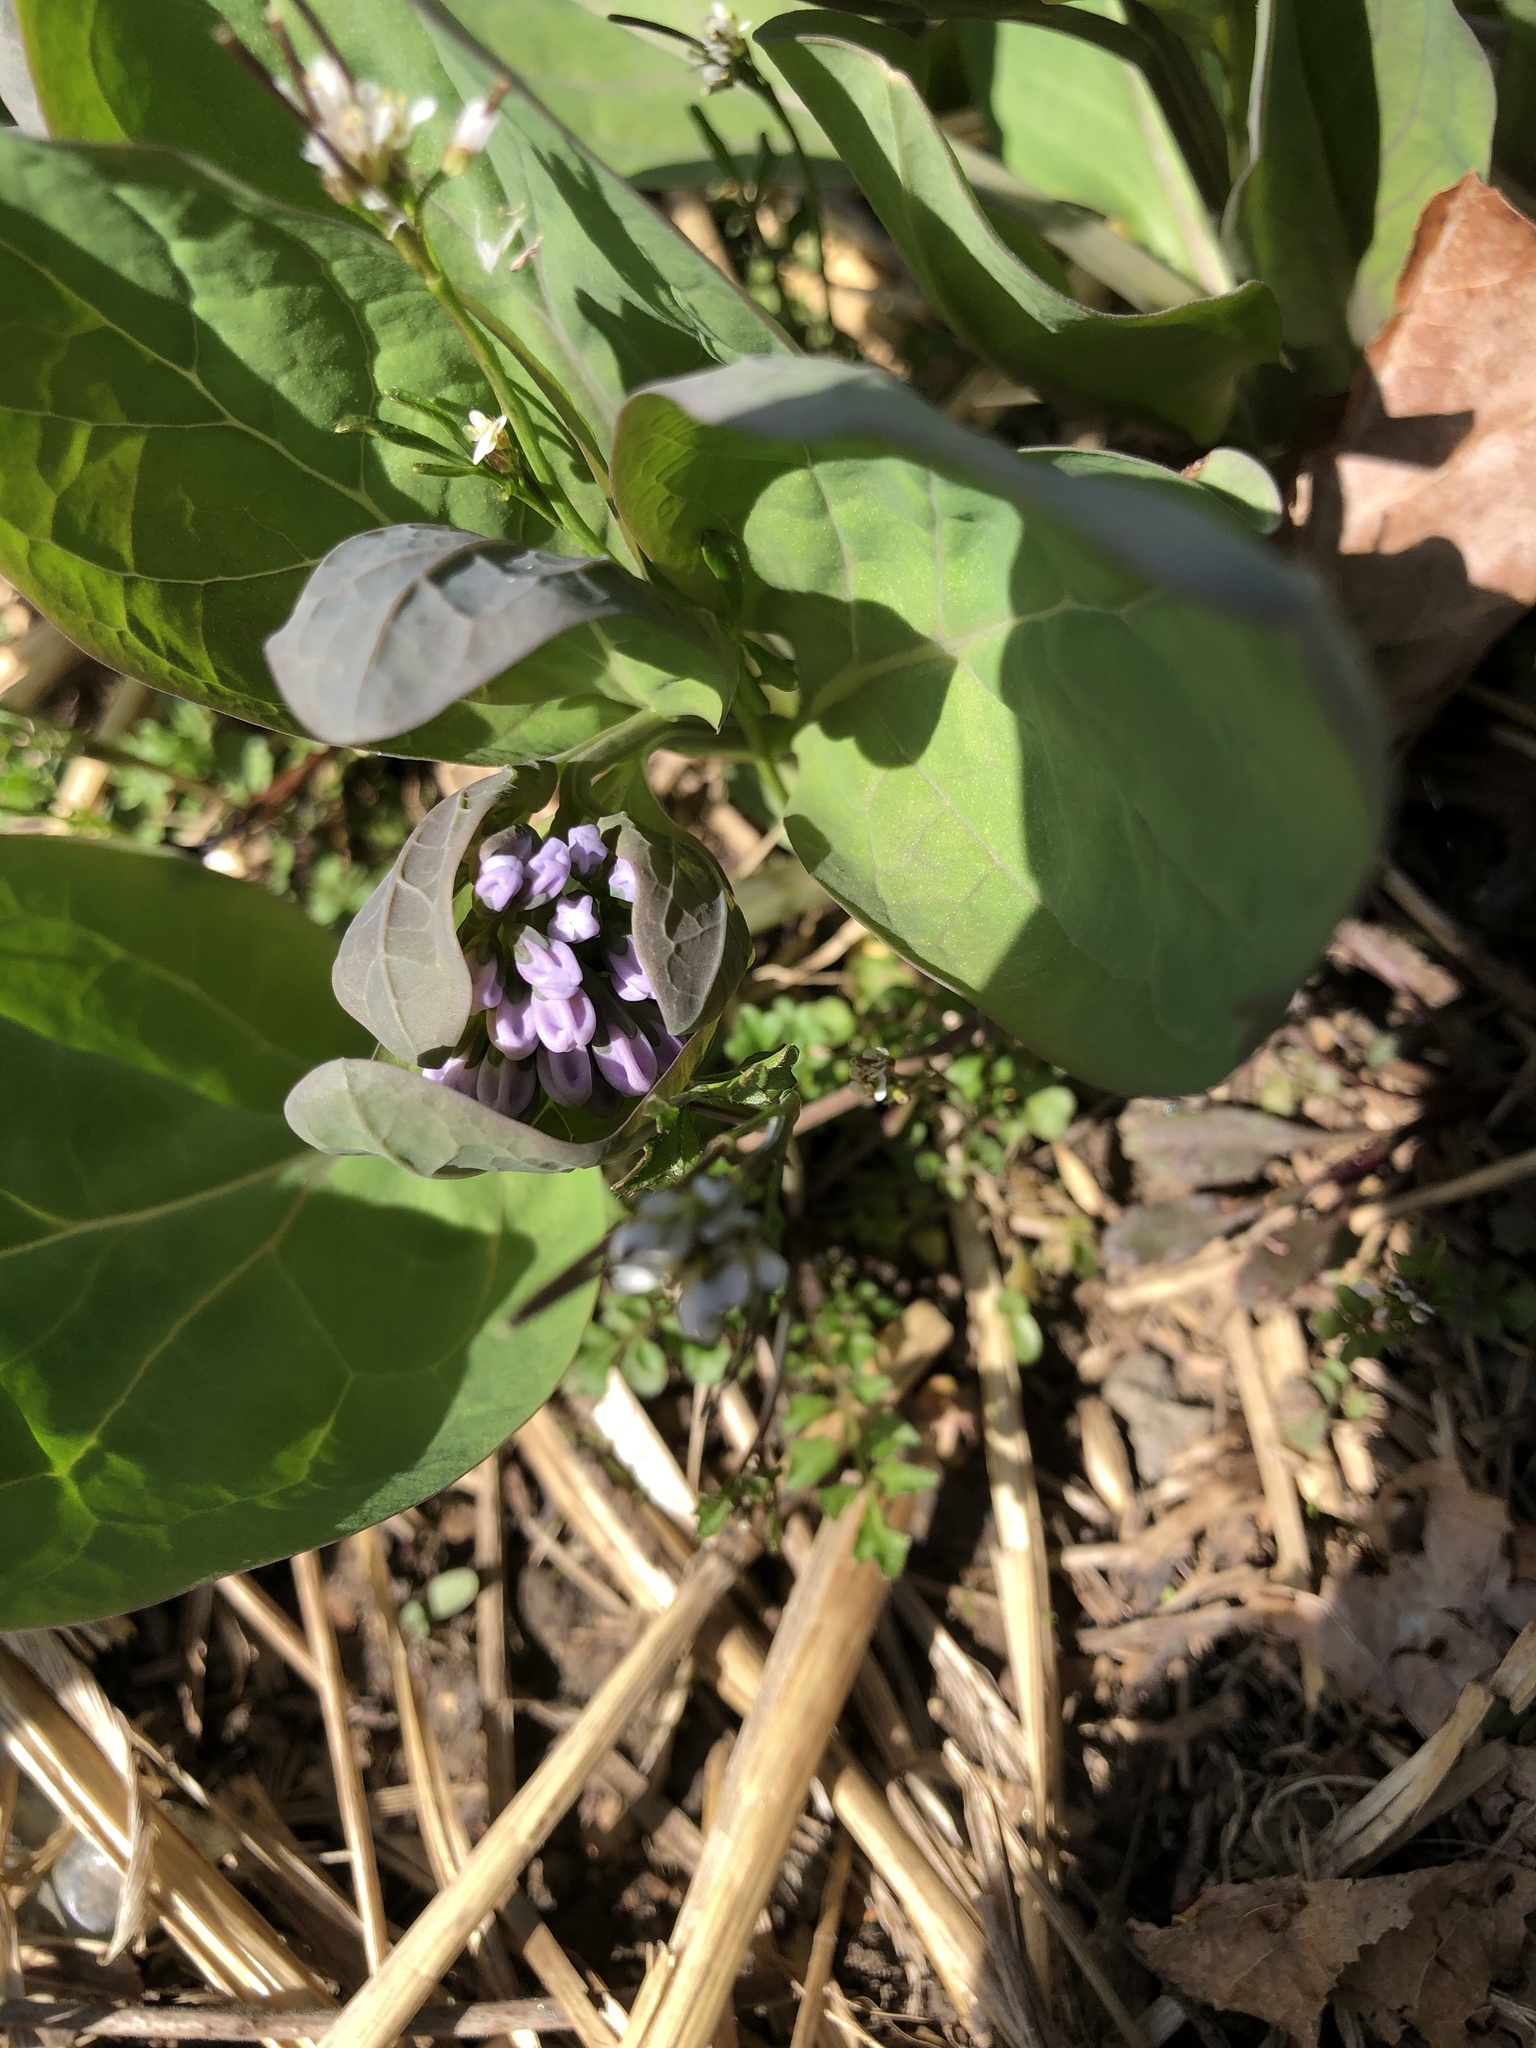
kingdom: Plantae
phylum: Tracheophyta
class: Magnoliopsida
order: Boraginales
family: Boraginaceae
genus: Mertensia
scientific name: Mertensia virginica
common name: Virginia bluebells
